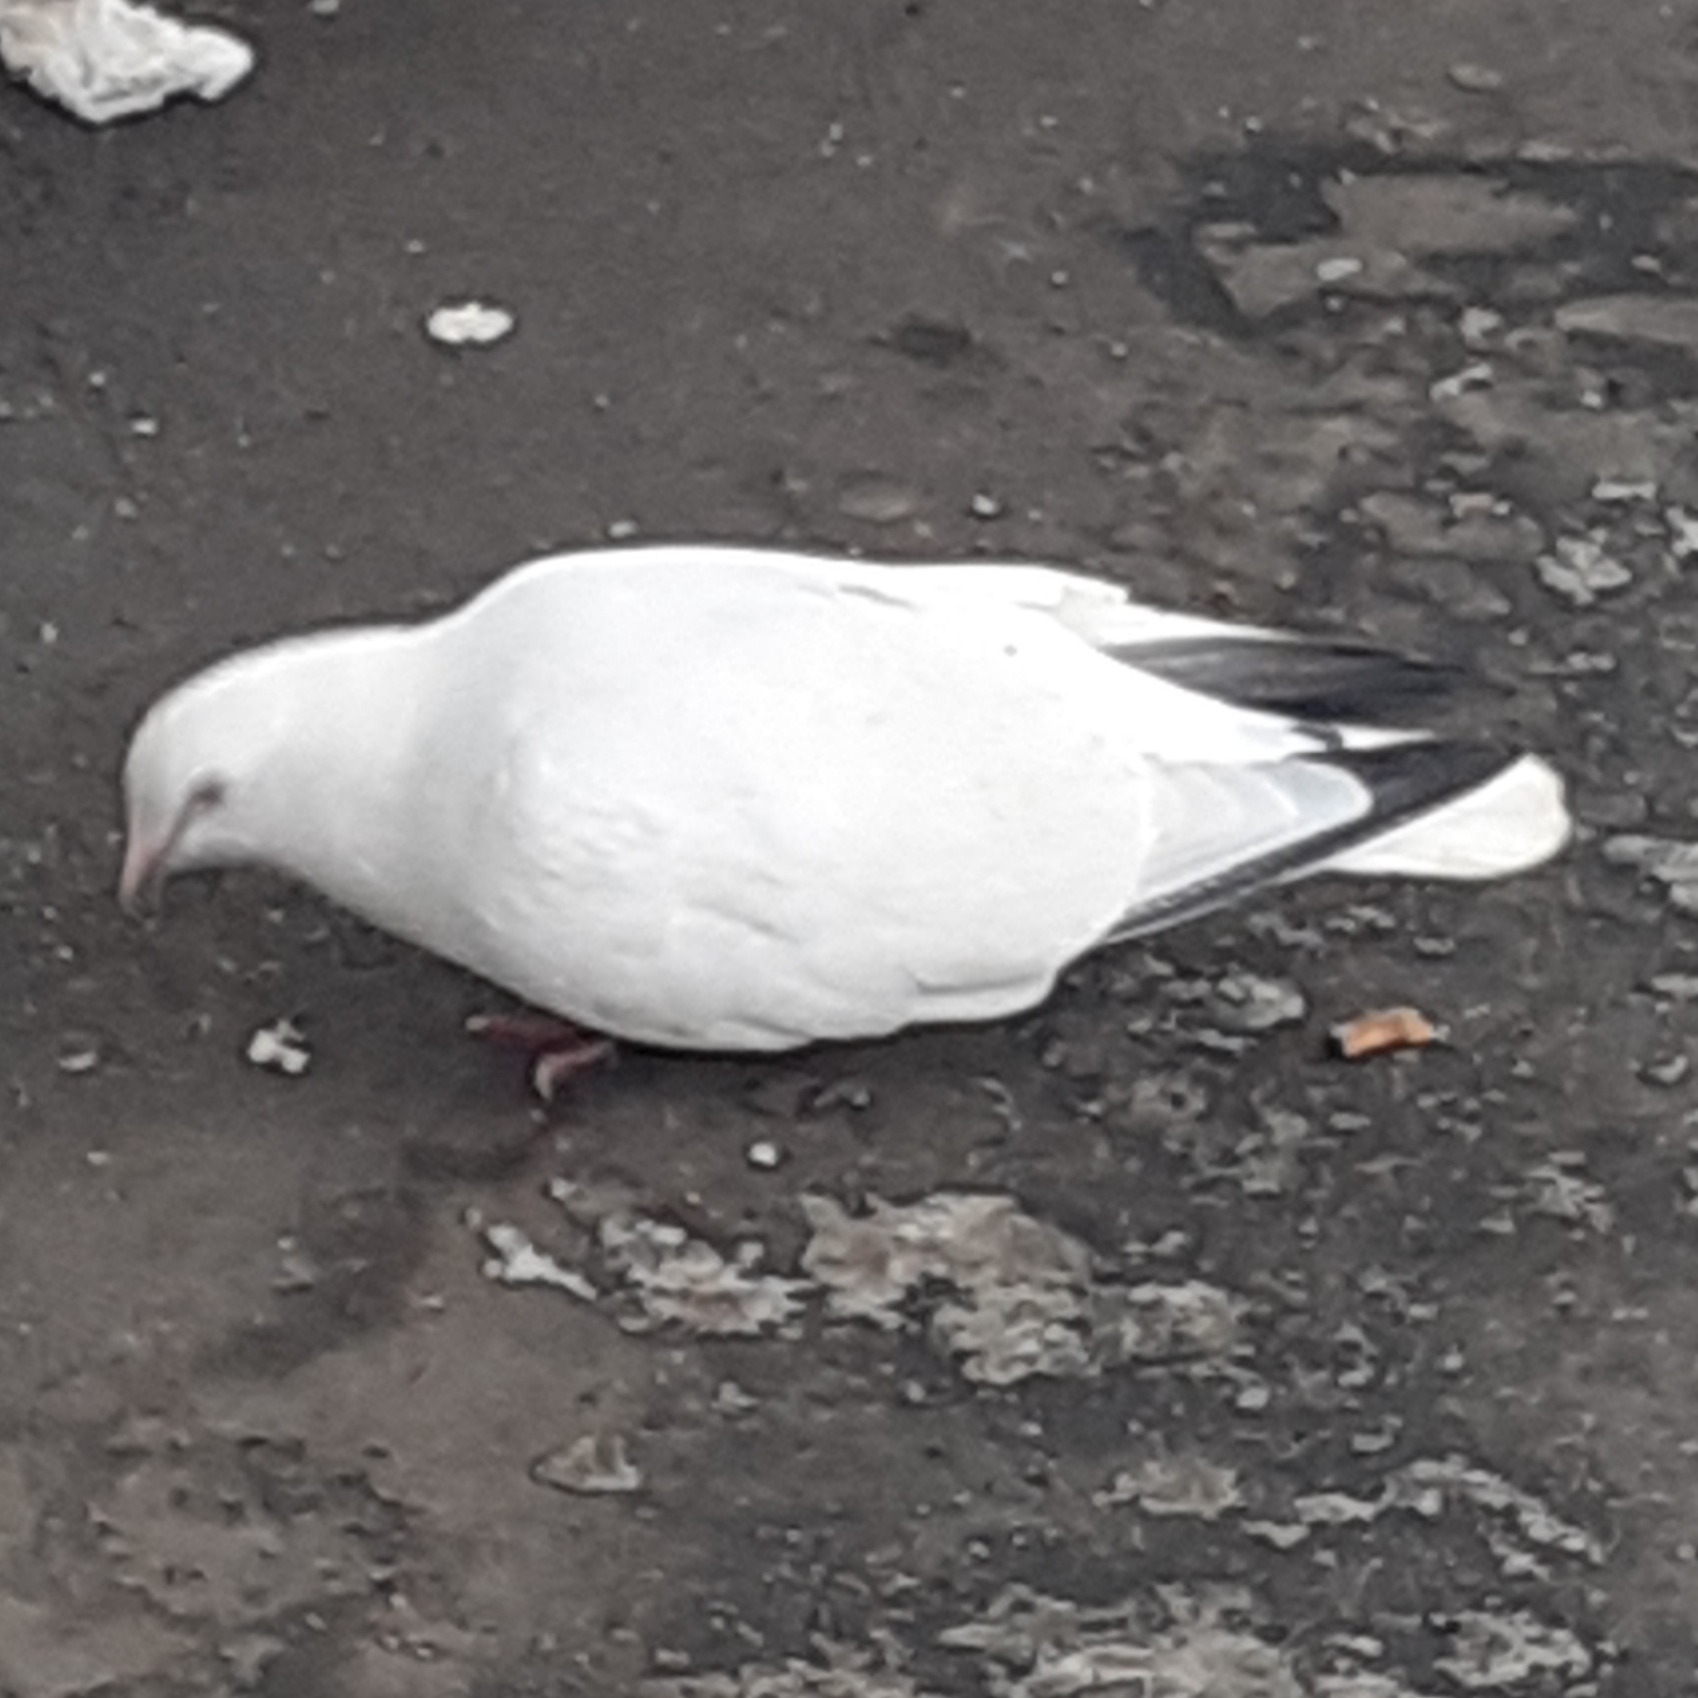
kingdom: Animalia
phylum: Chordata
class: Aves
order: Columbiformes
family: Columbidae
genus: Columba
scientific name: Columba livia
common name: Rock pigeon
